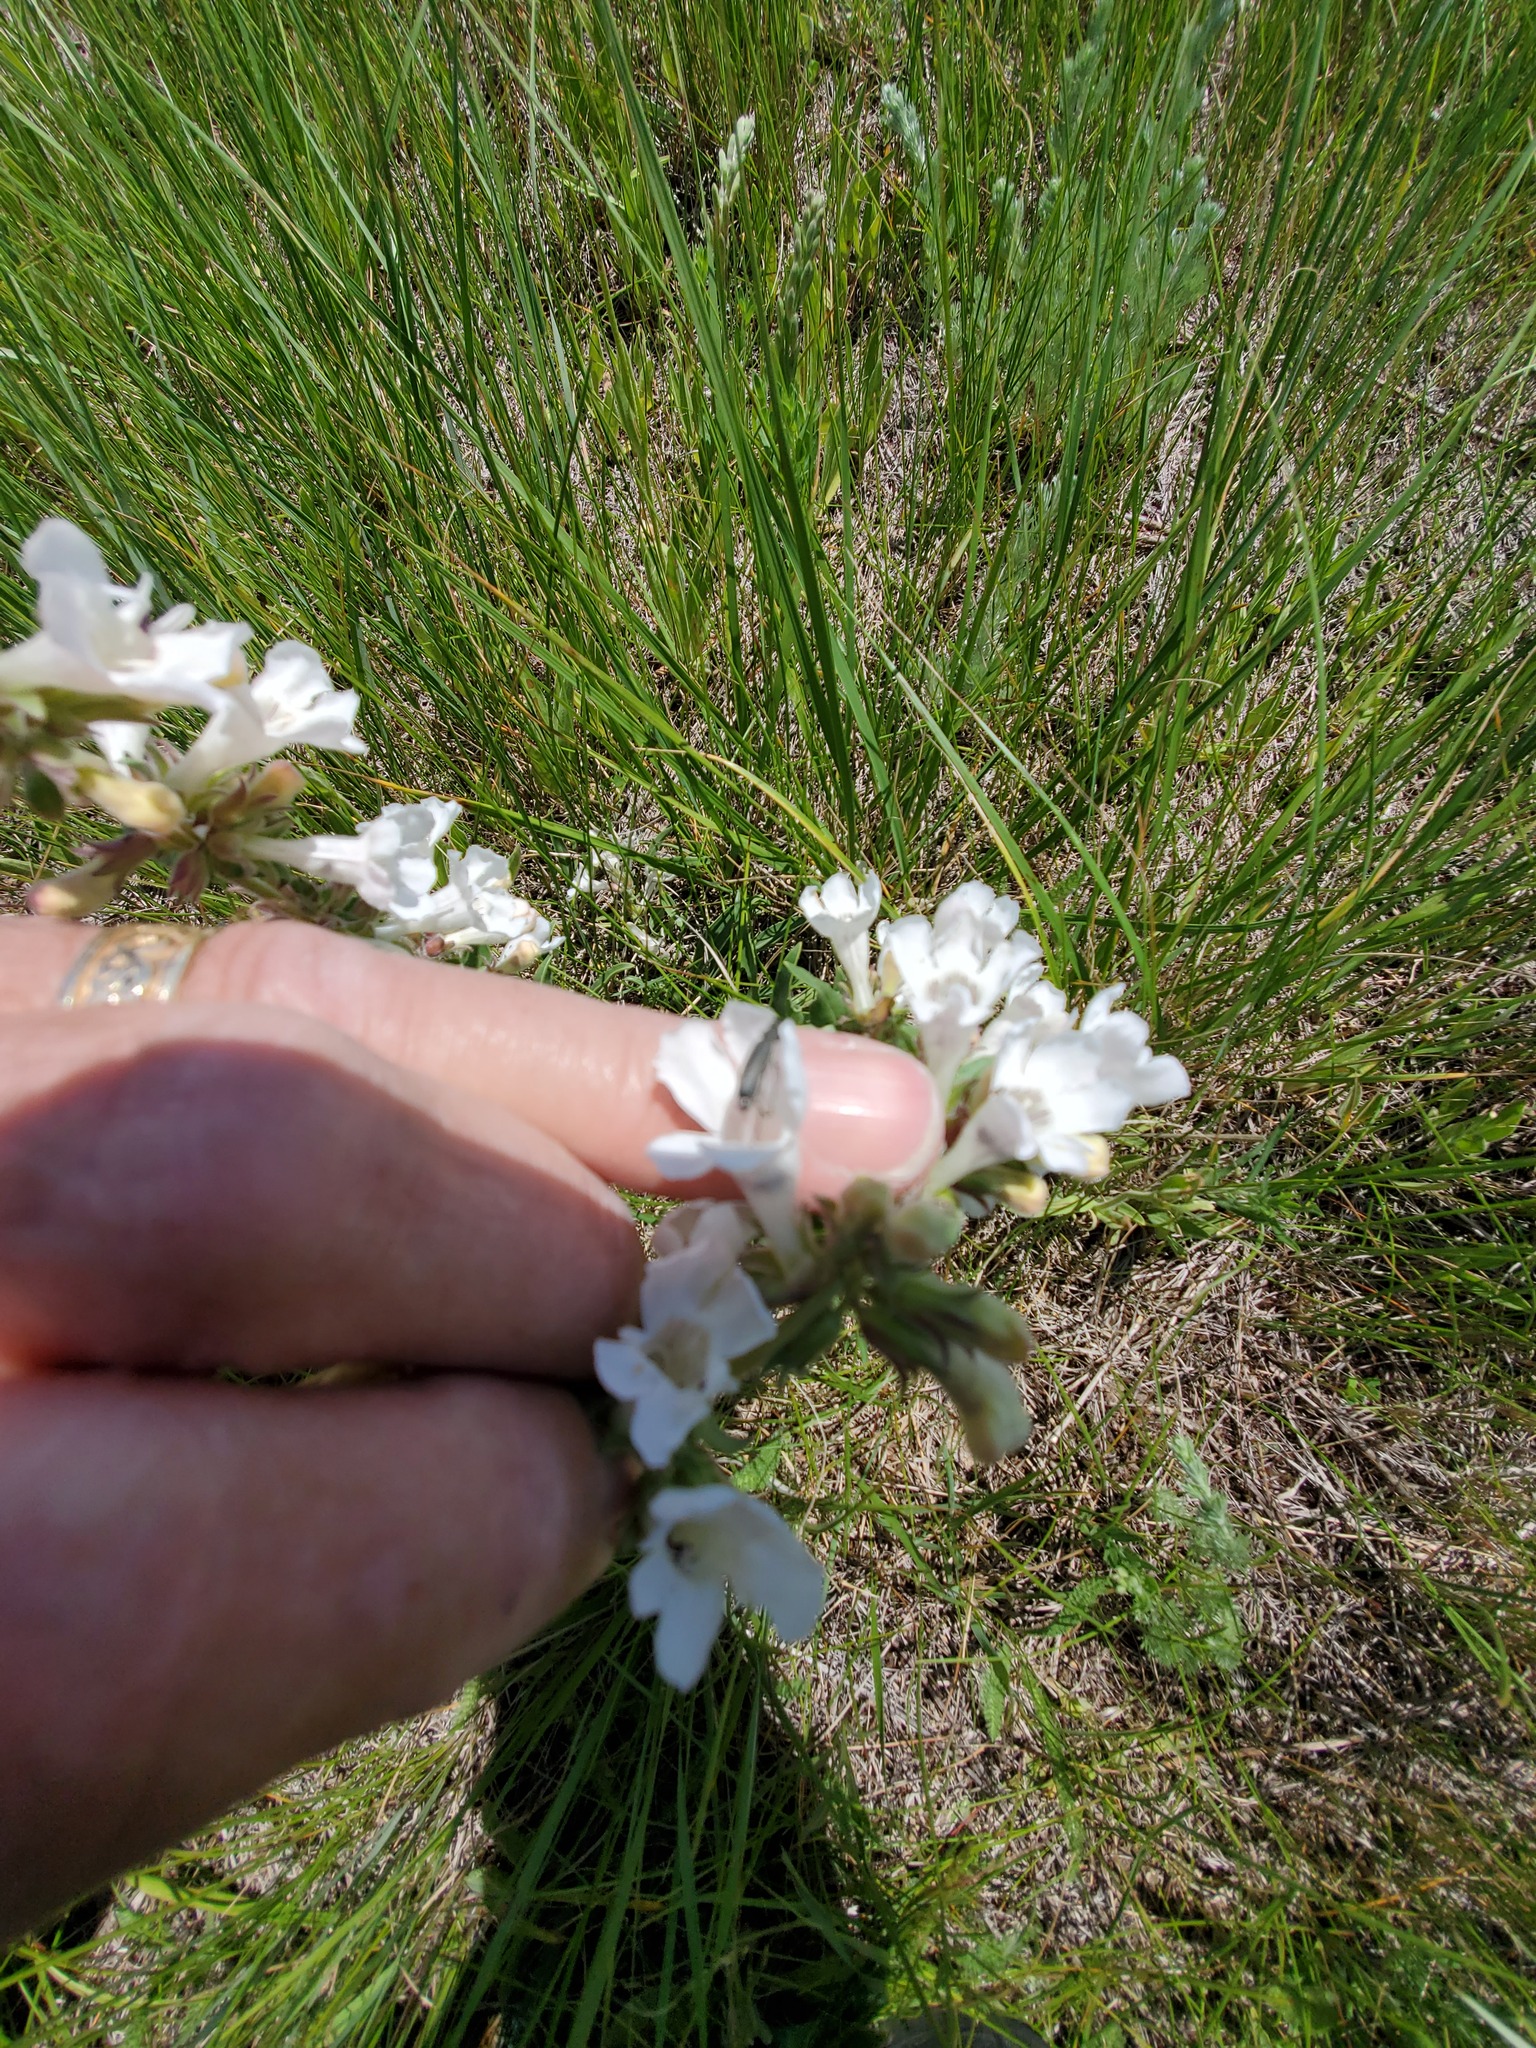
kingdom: Plantae
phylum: Tracheophyta
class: Magnoliopsida
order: Lamiales
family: Plantaginaceae
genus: Penstemon
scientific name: Penstemon albidus
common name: White beardtongue
